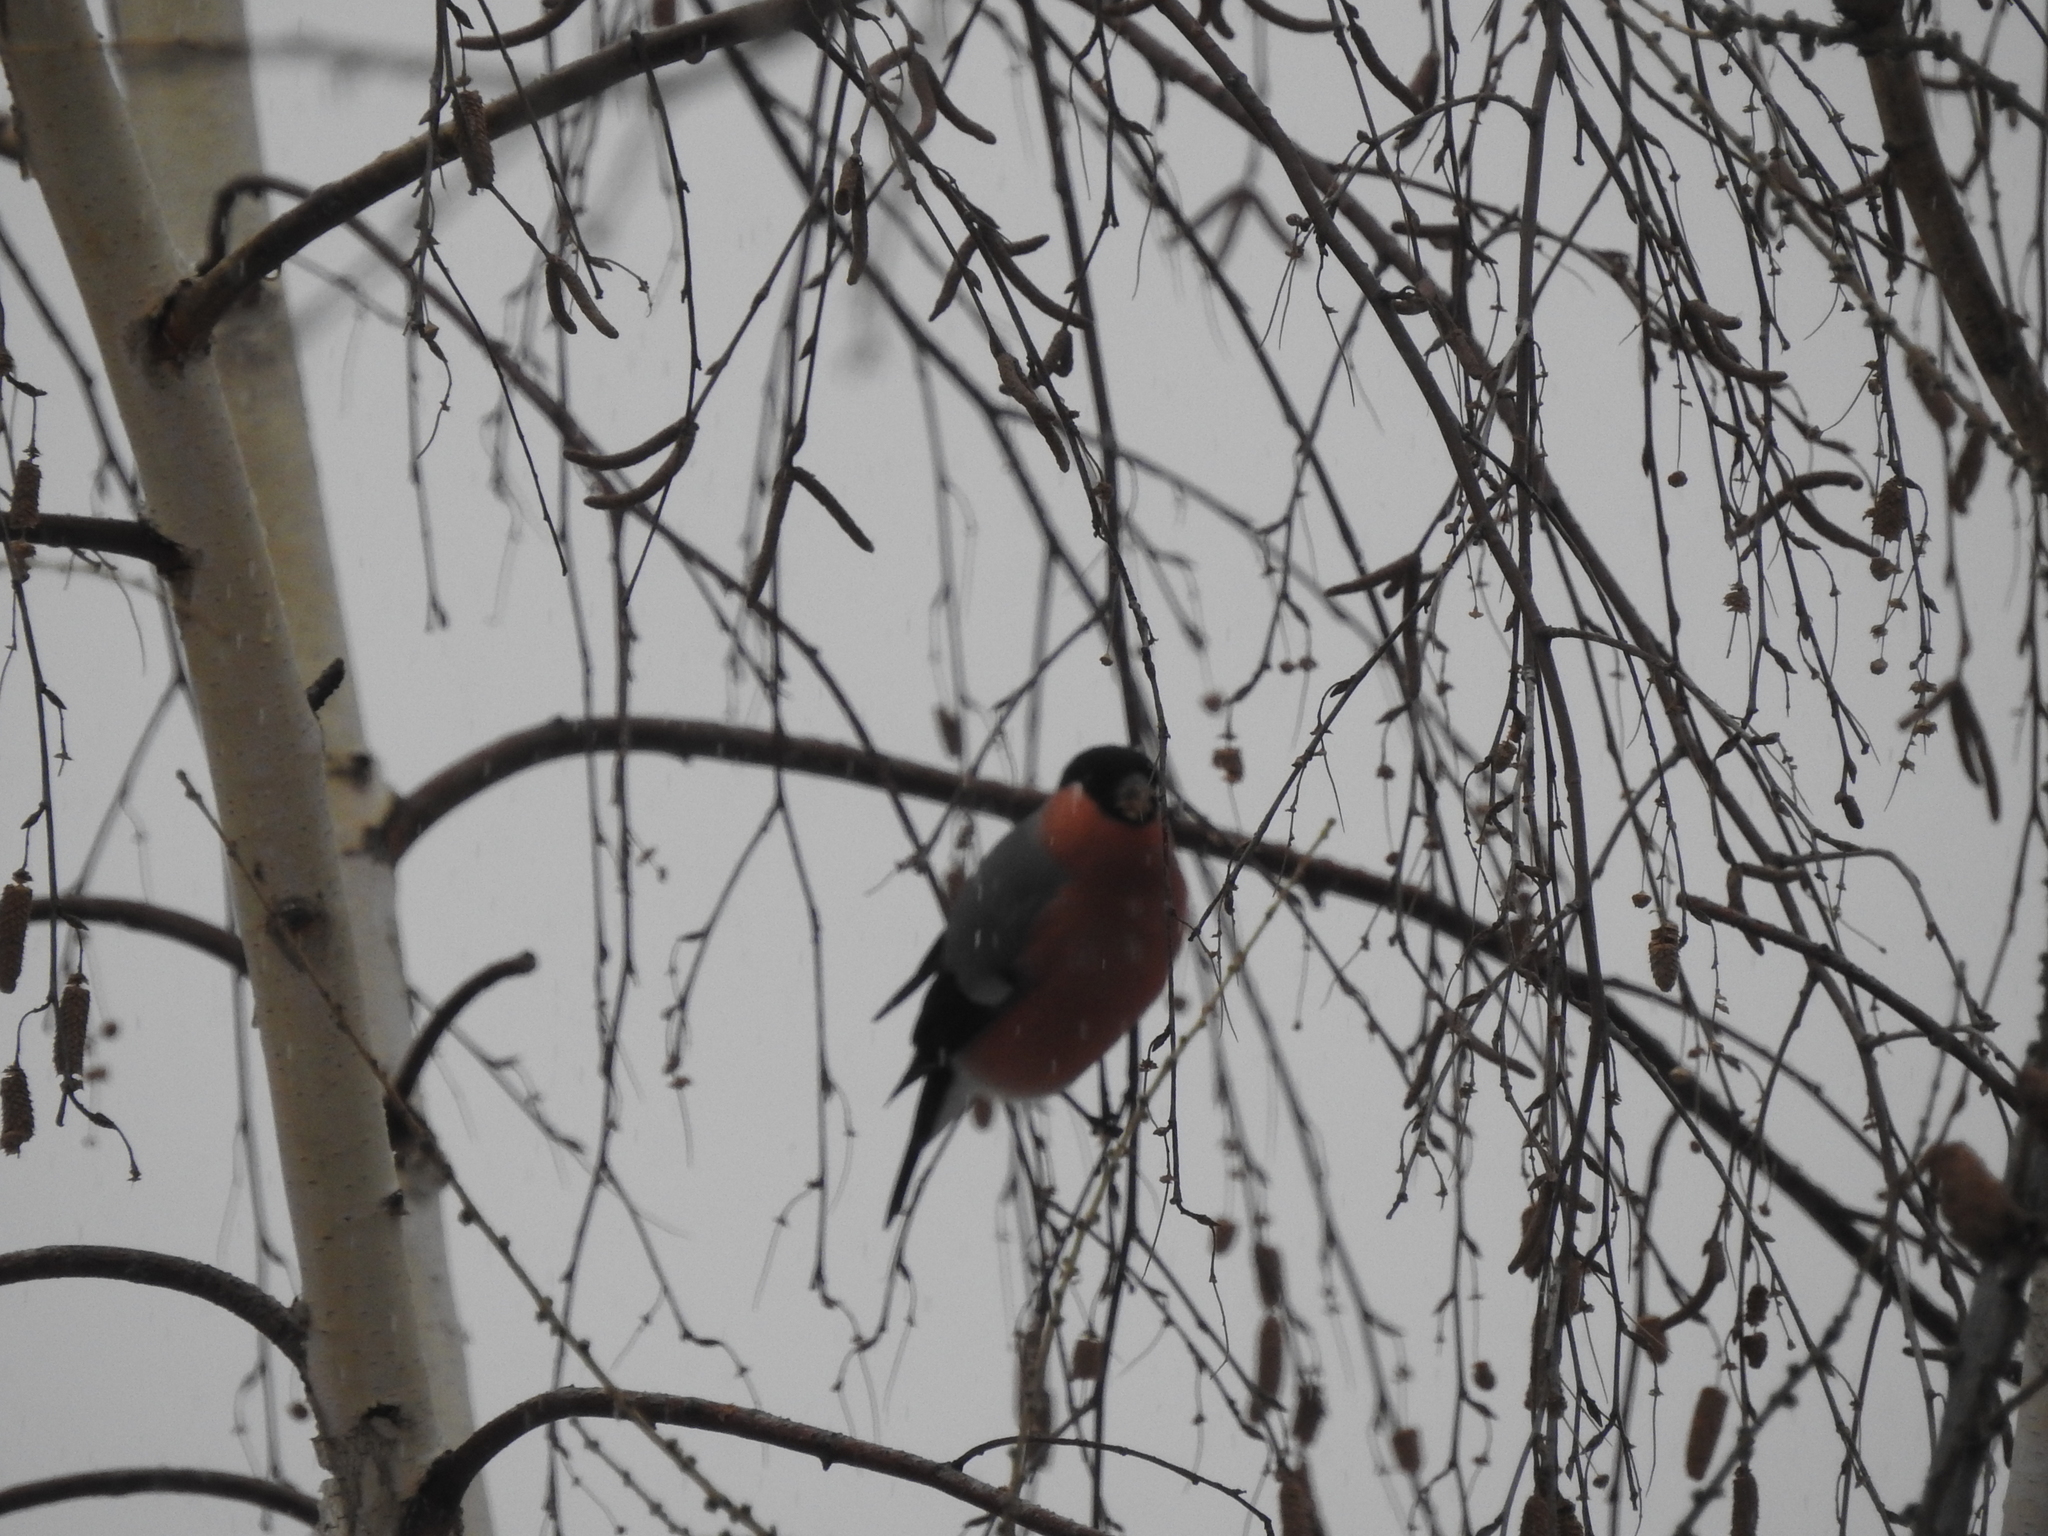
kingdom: Animalia
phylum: Chordata
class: Aves
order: Passeriformes
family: Fringillidae
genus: Pyrrhula
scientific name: Pyrrhula pyrrhula
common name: Eurasian bullfinch
